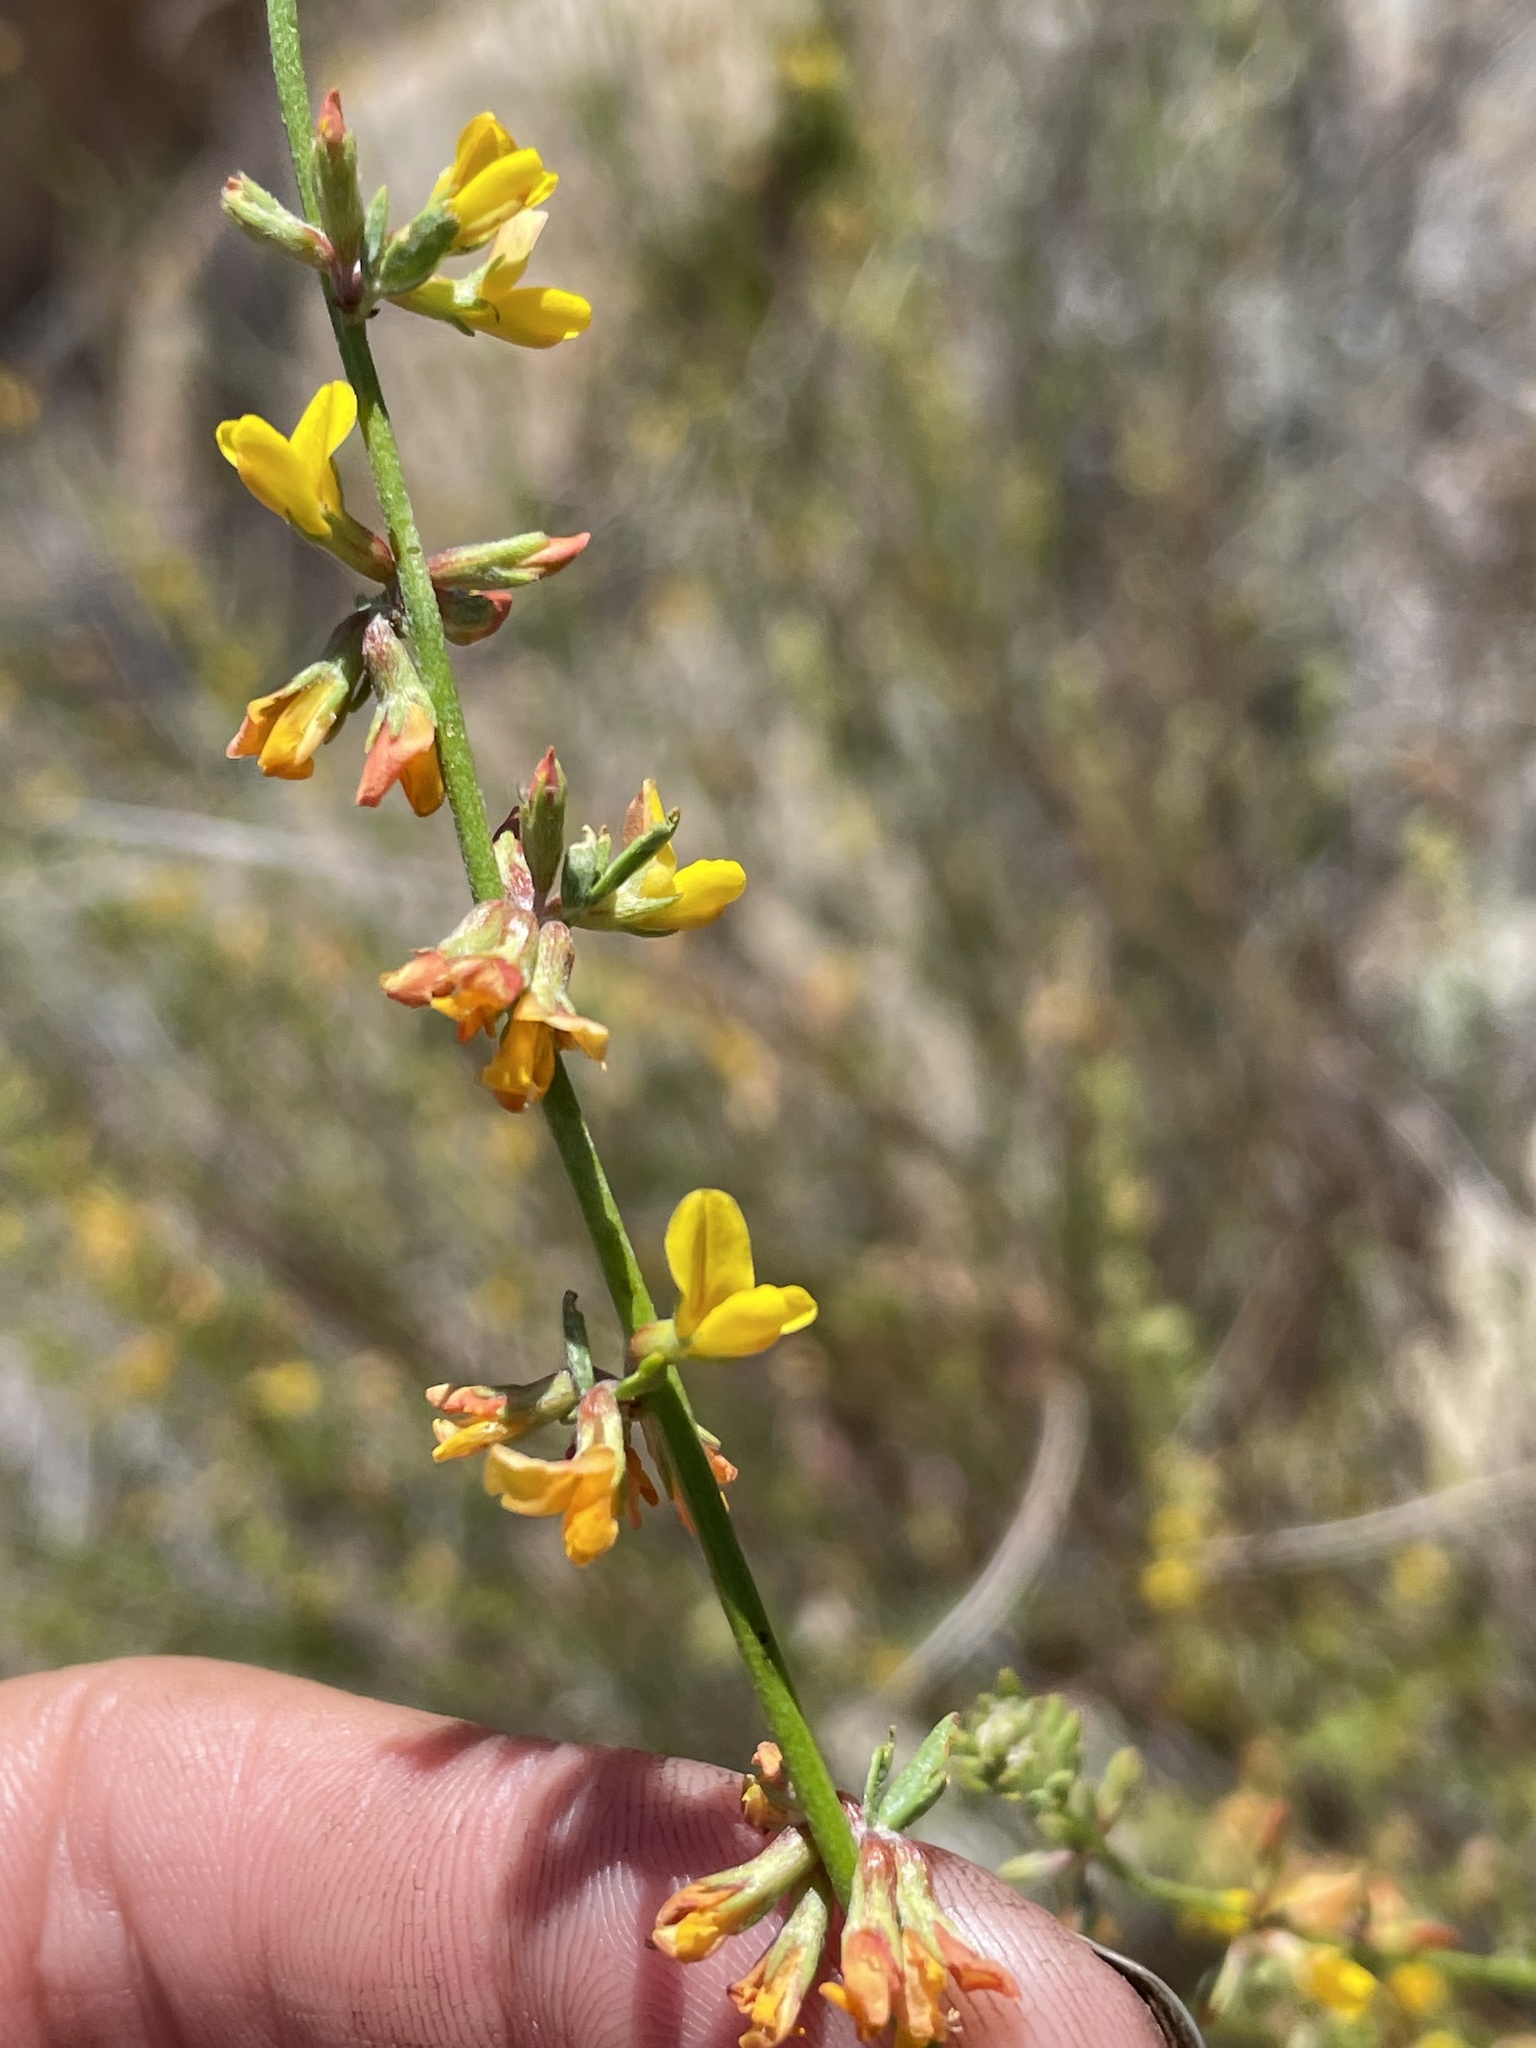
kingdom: Plantae
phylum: Tracheophyta
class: Magnoliopsida
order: Fabales
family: Fabaceae
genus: Acmispon
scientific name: Acmispon glaber
